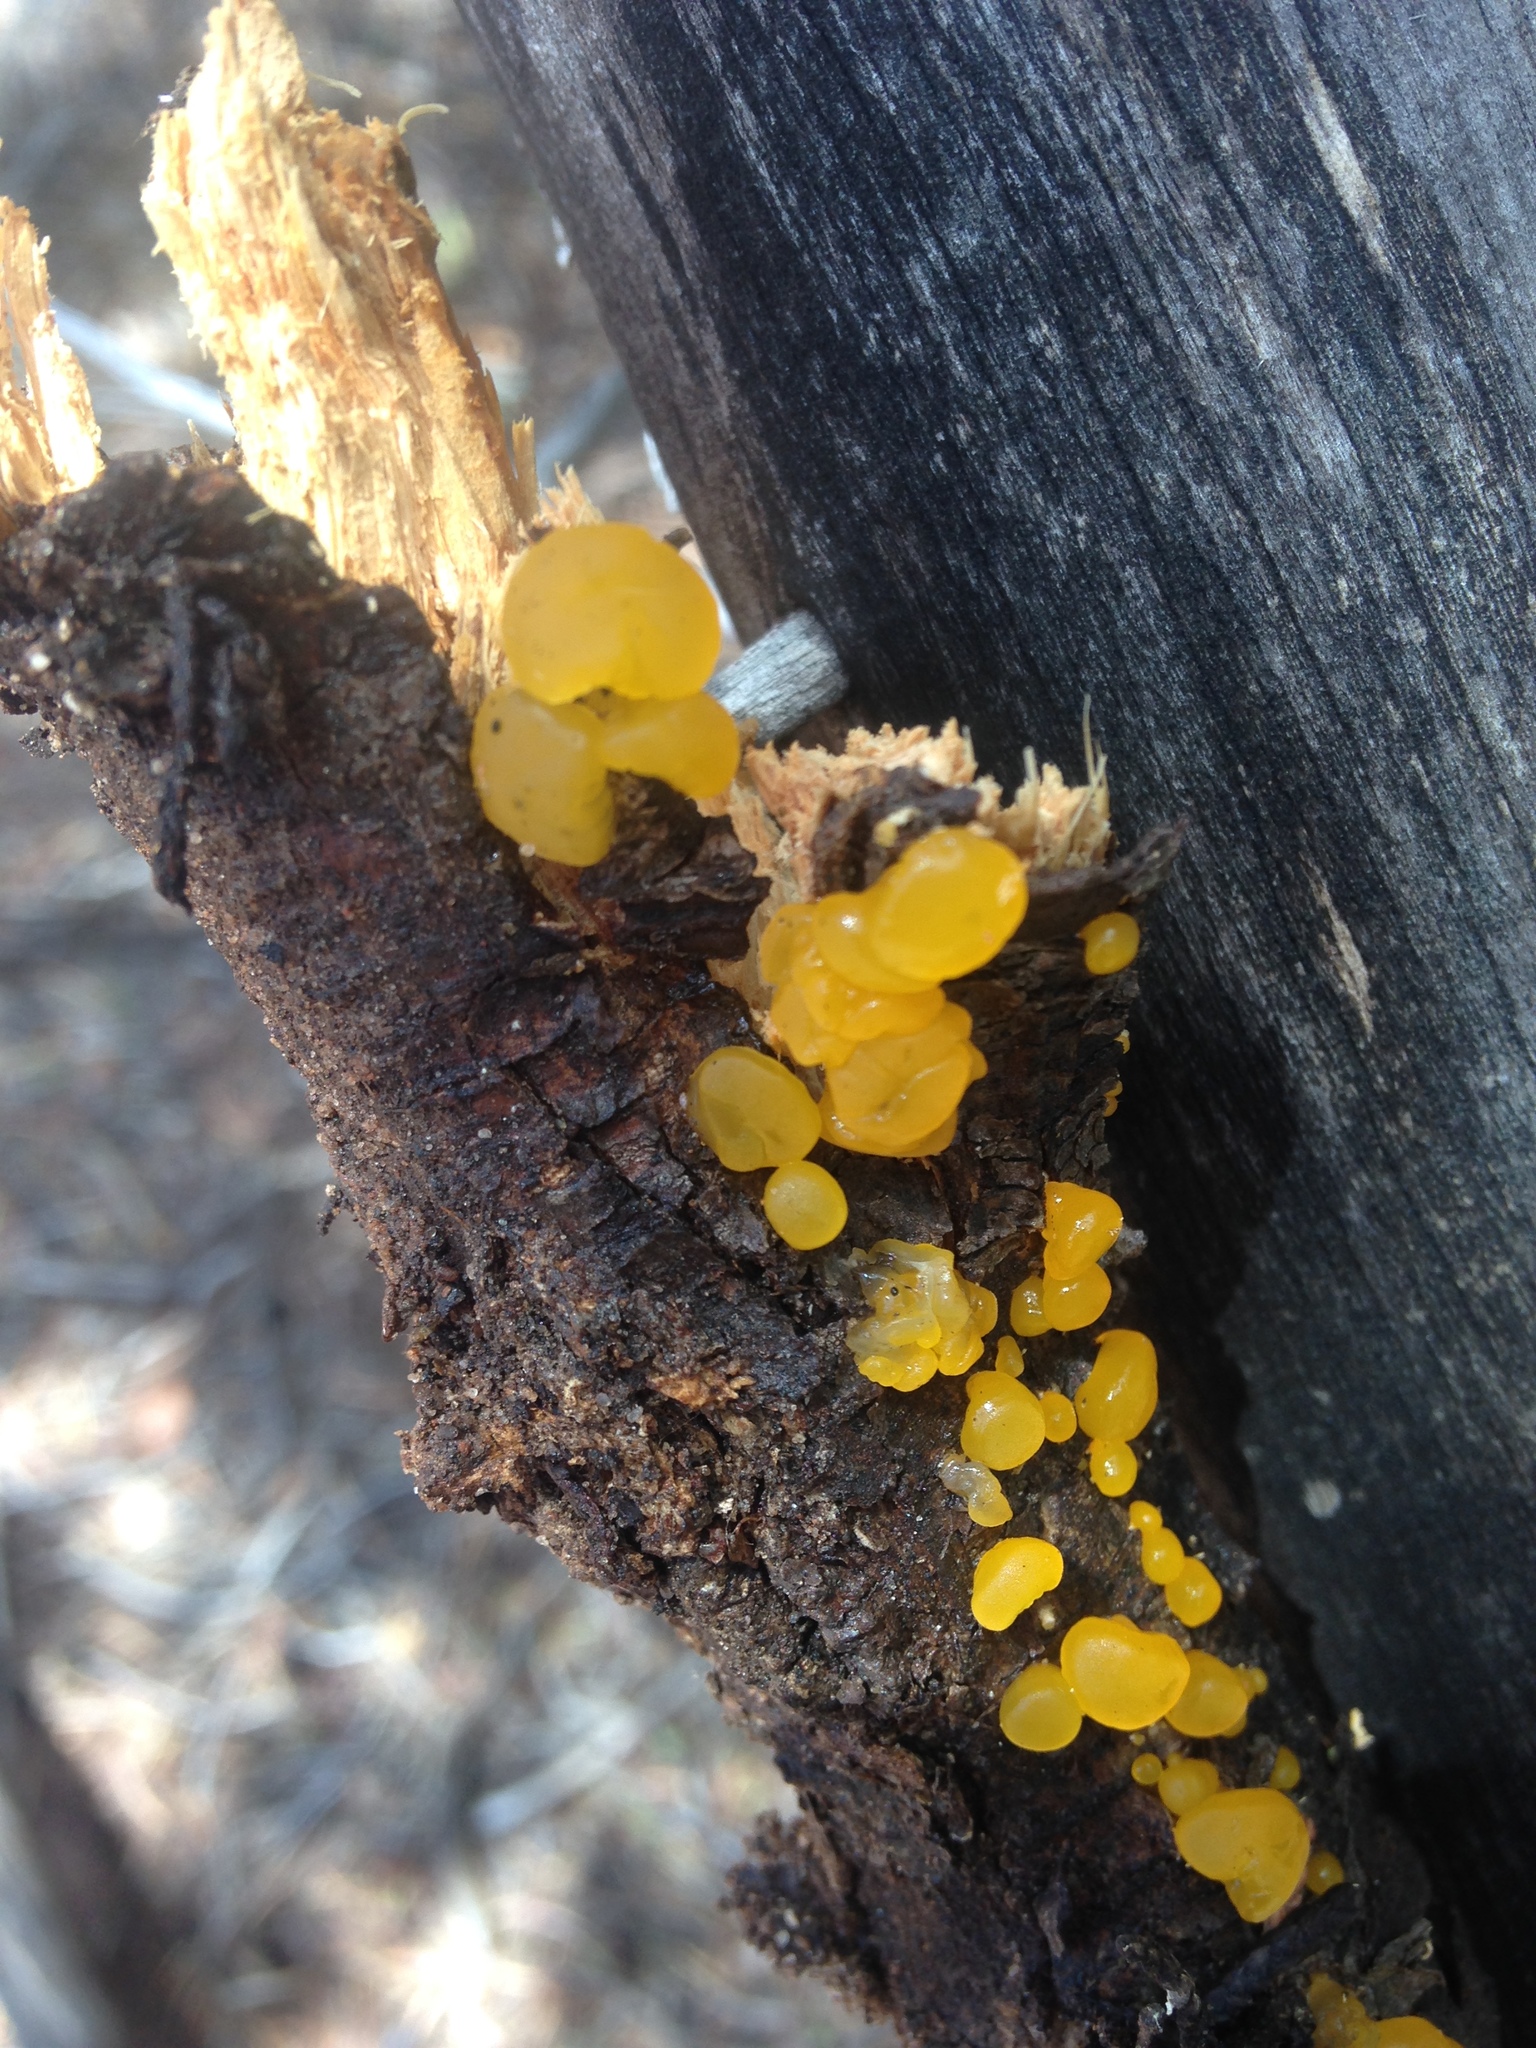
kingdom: Fungi
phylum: Basidiomycota
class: Dacrymycetes
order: Dacrymycetales
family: Dacrymycetaceae
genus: Dacrymyces
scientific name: Dacrymyces stillatus
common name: Common jelly spot
